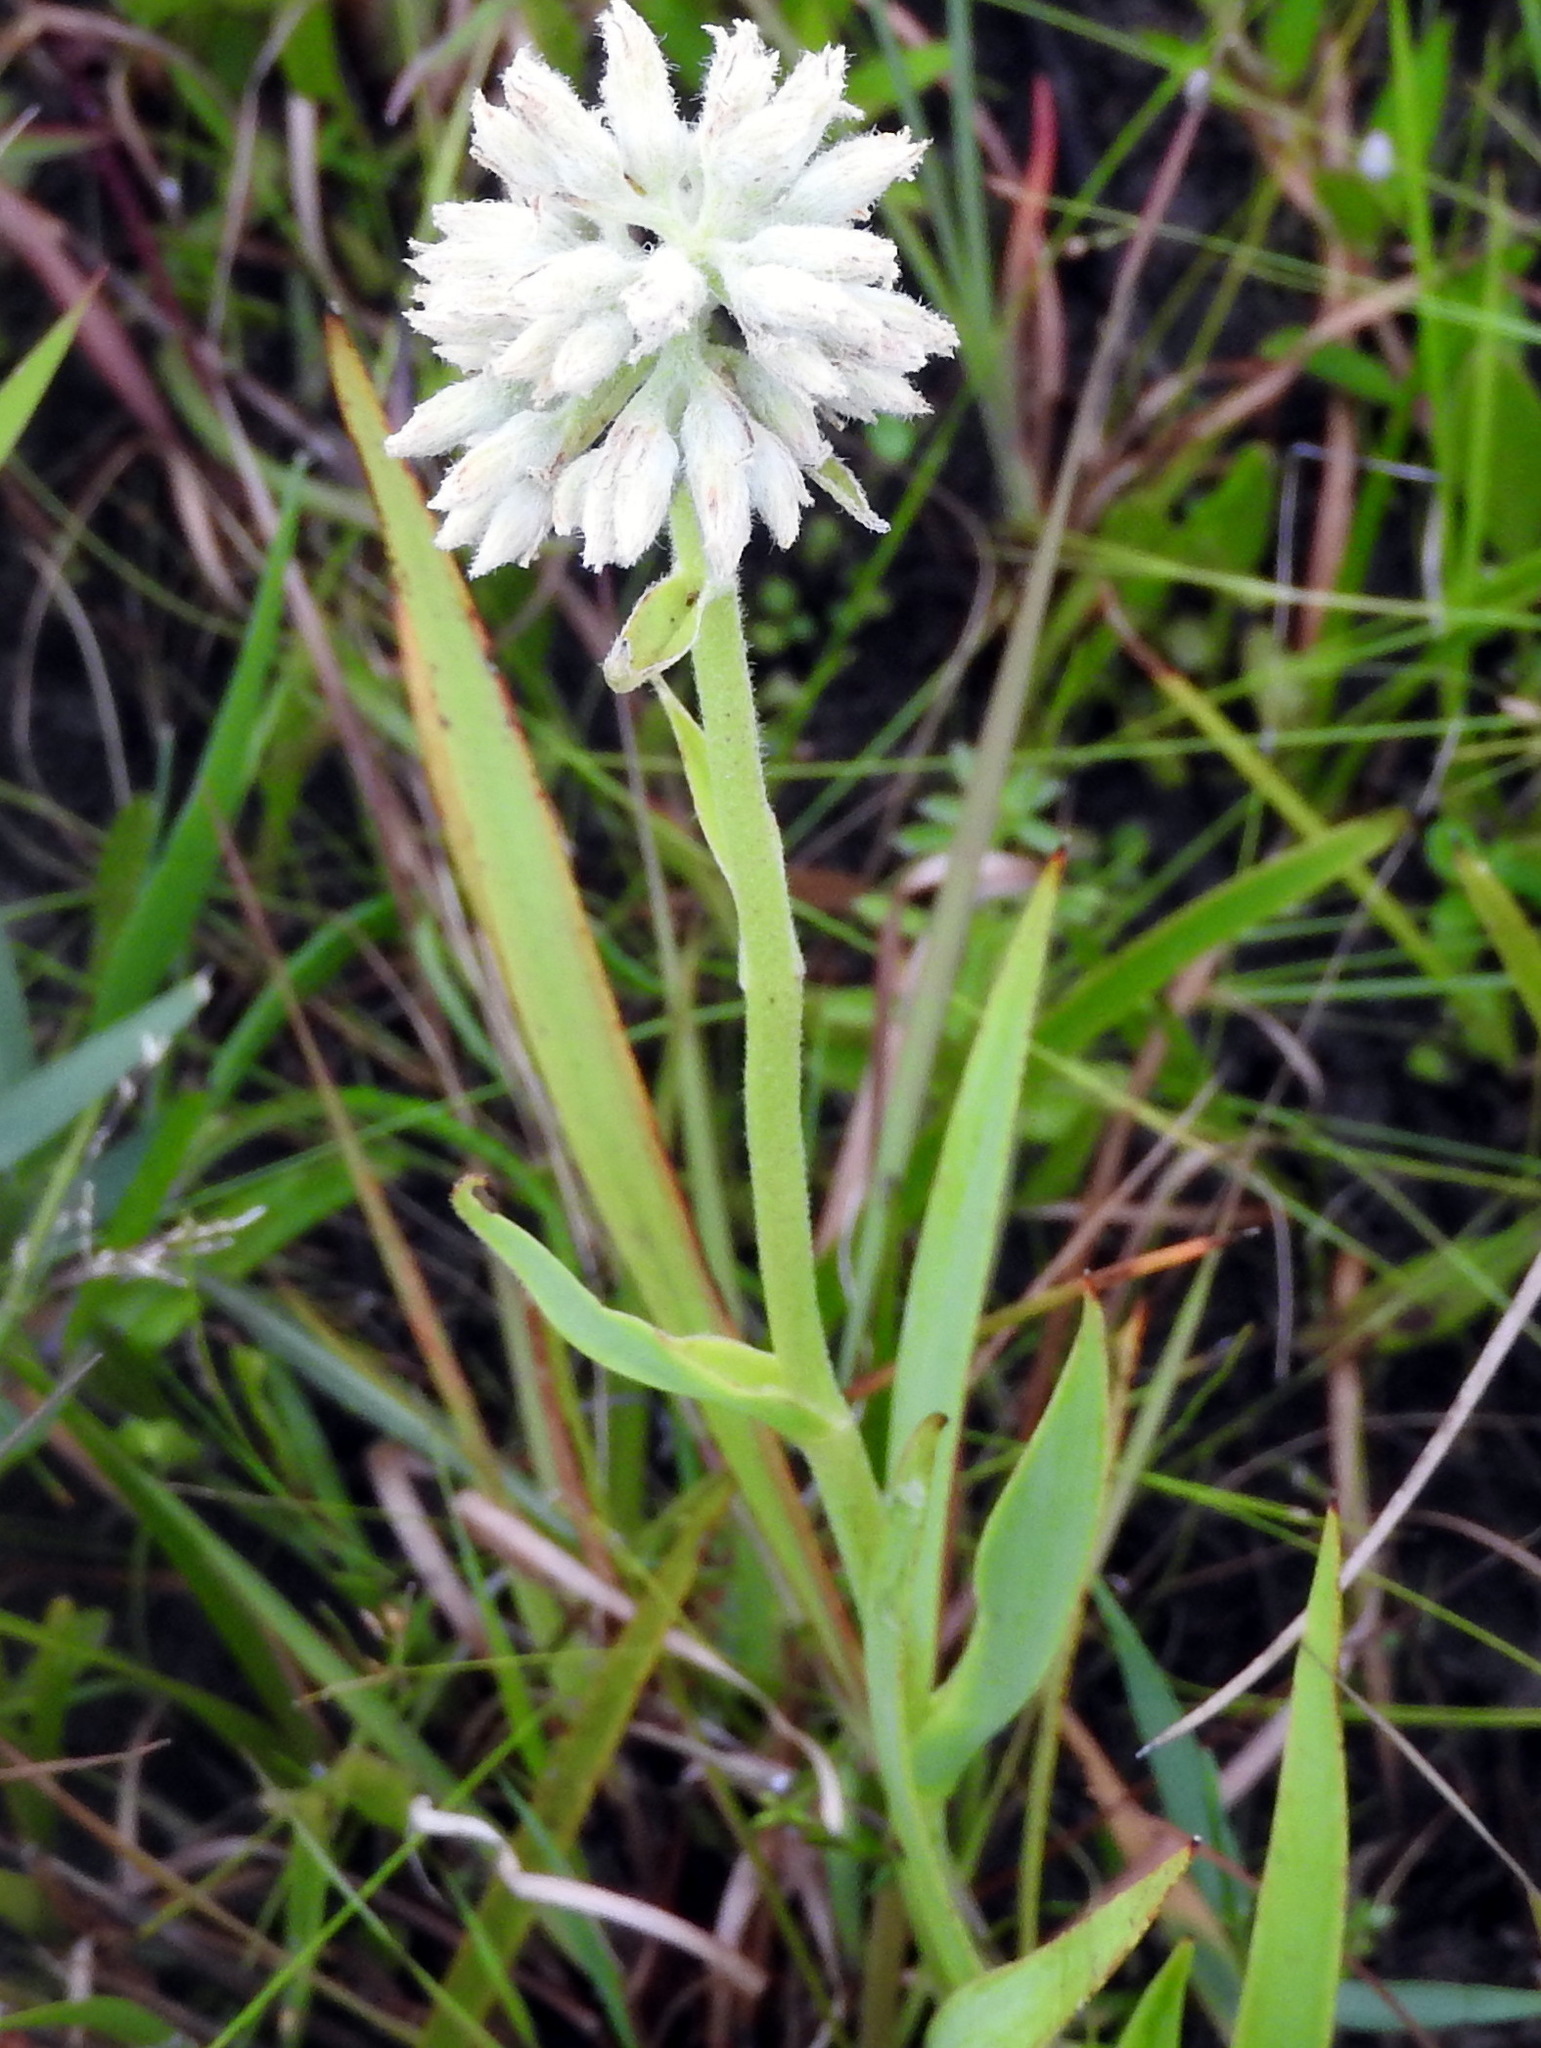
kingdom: Plantae
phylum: Tracheophyta
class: Liliopsida
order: Commelinales
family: Haemodoraceae
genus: Lachnanthes
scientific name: Lachnanthes caroliana
